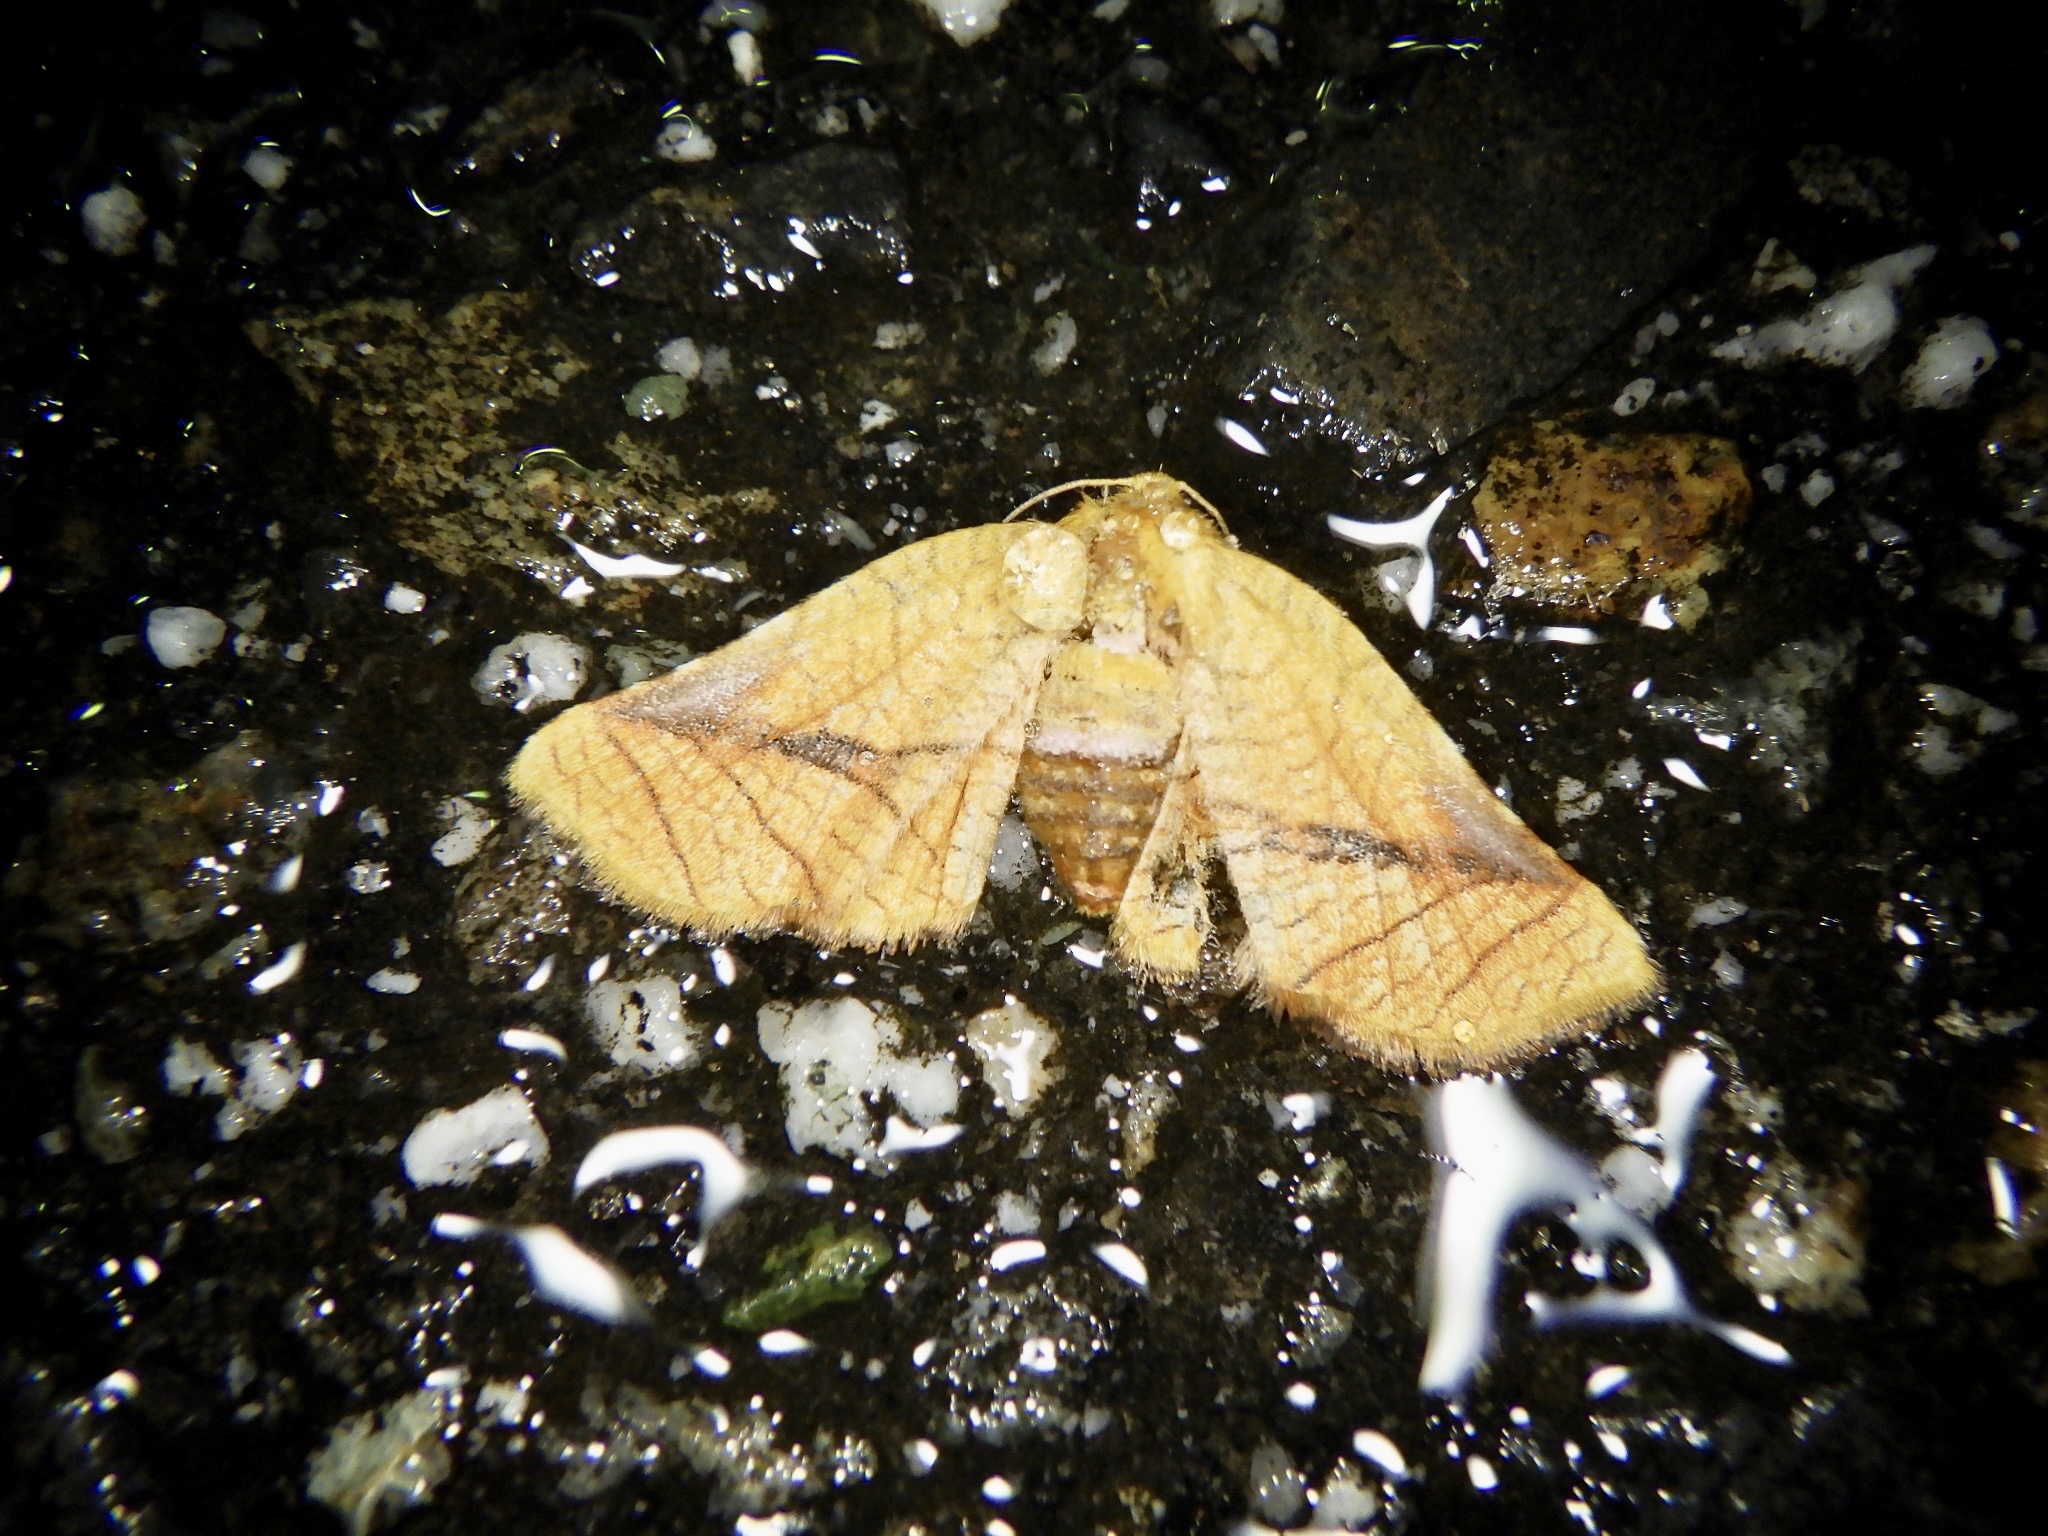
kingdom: Animalia
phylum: Arthropoda
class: Insecta
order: Lepidoptera
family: Thyrididae
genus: Pyrinioides
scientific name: Pyrinioides aurea
